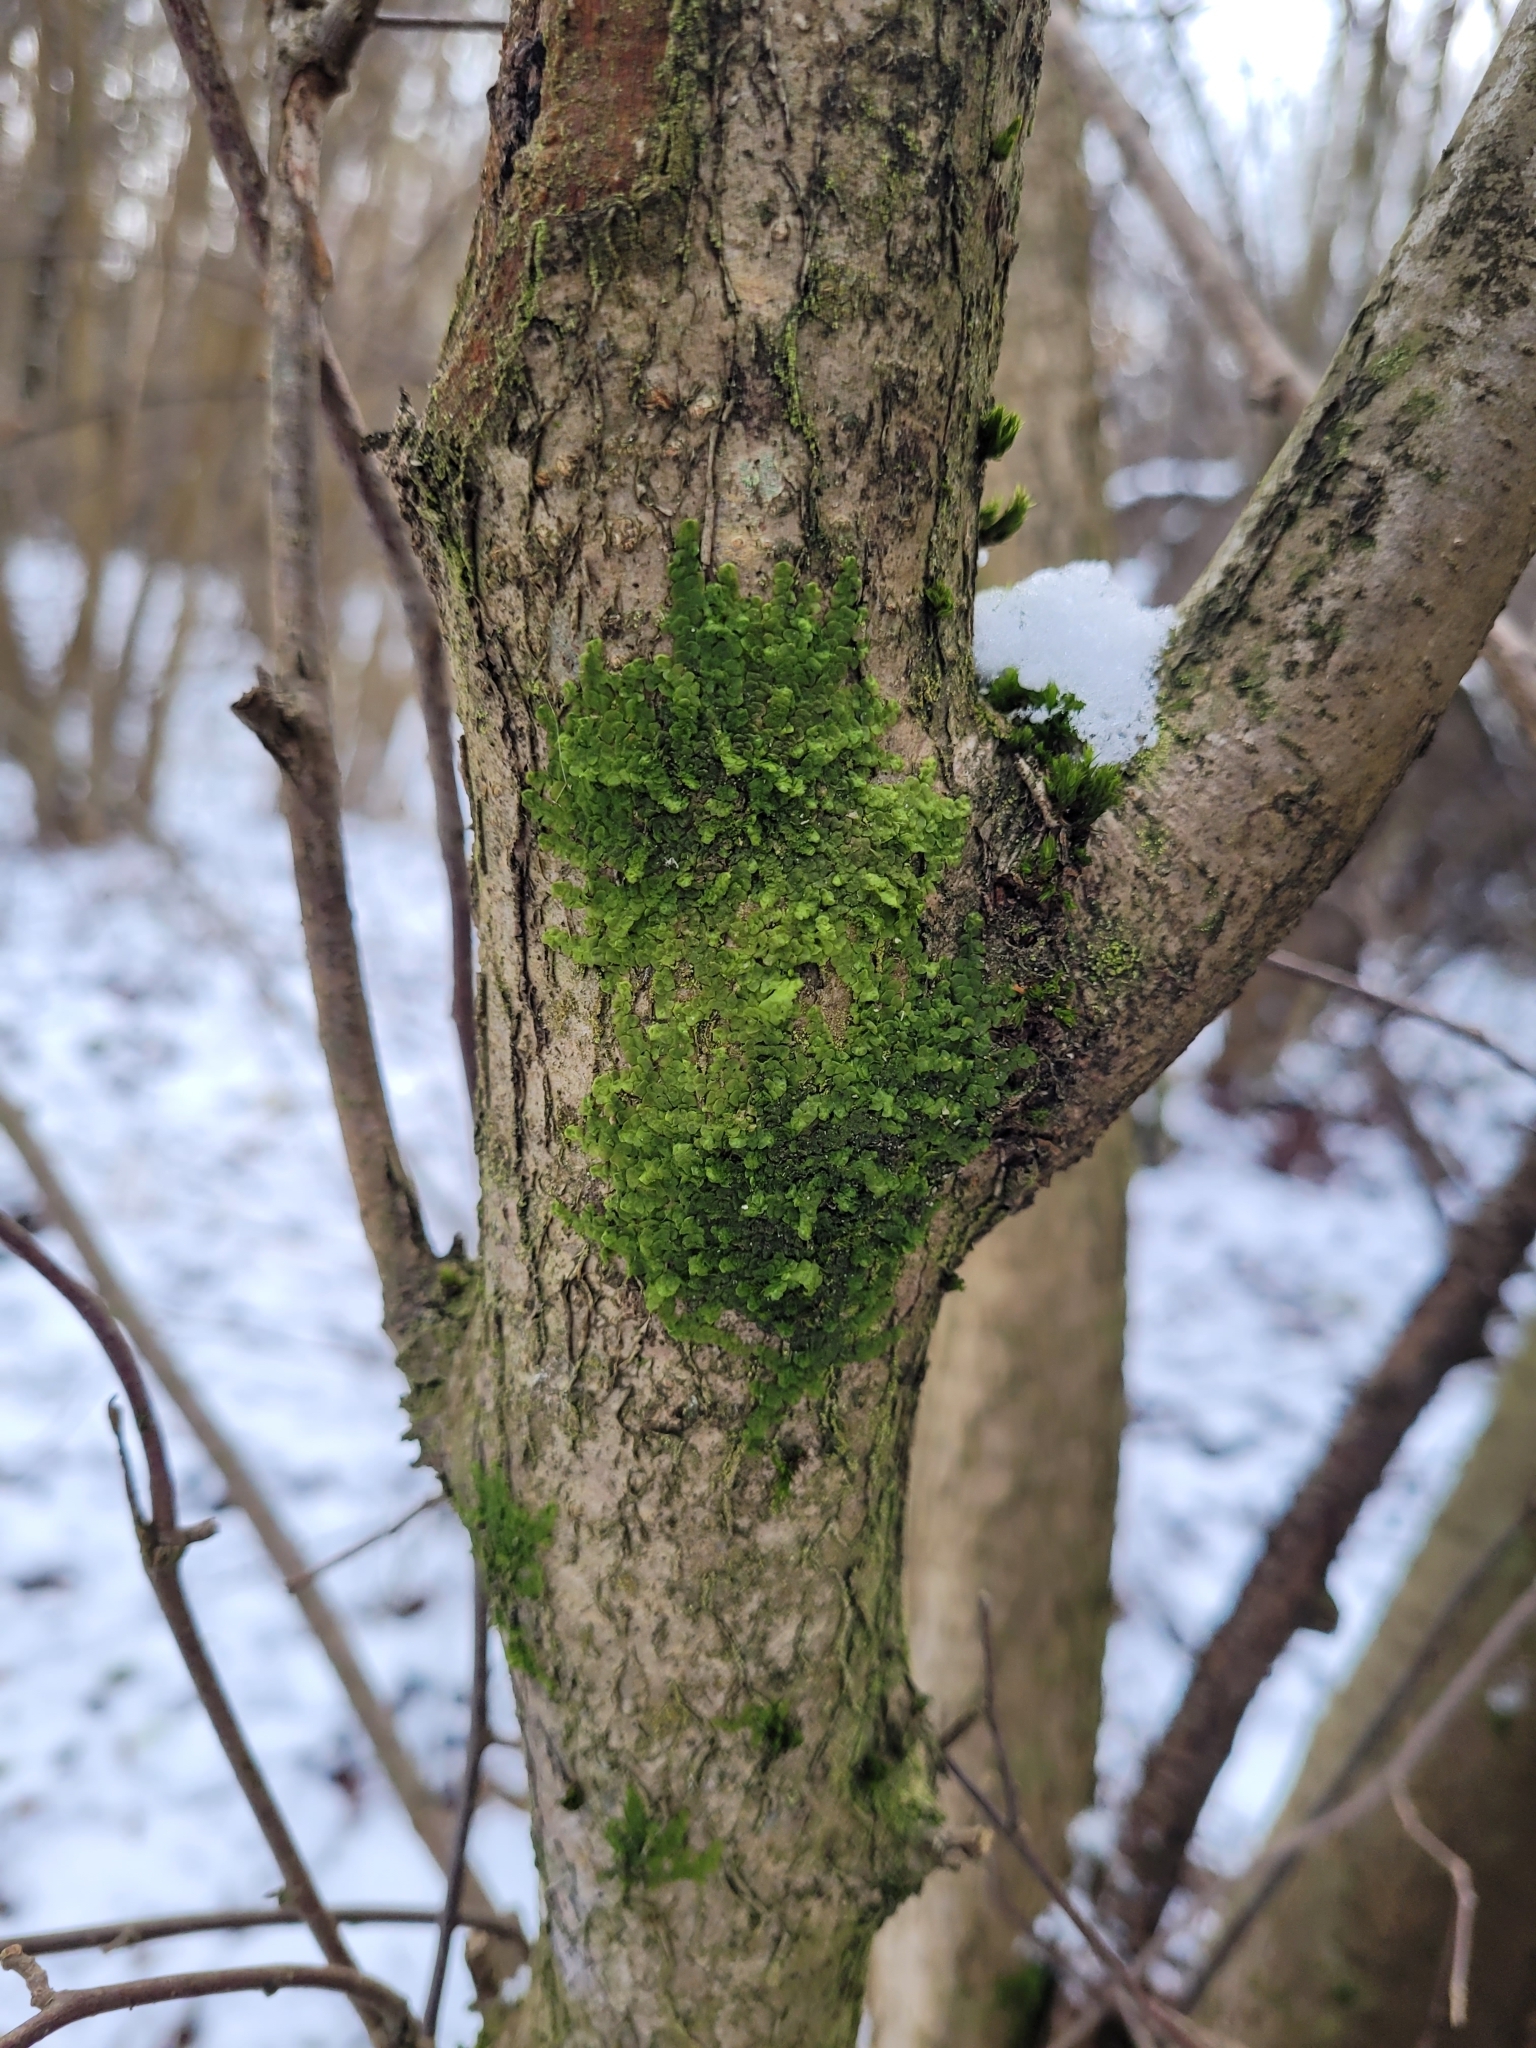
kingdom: Plantae
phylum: Marchantiophyta
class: Jungermanniopsida
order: Porellales
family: Radulaceae
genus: Radula
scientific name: Radula complanata
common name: Flat-leaved scalewort
